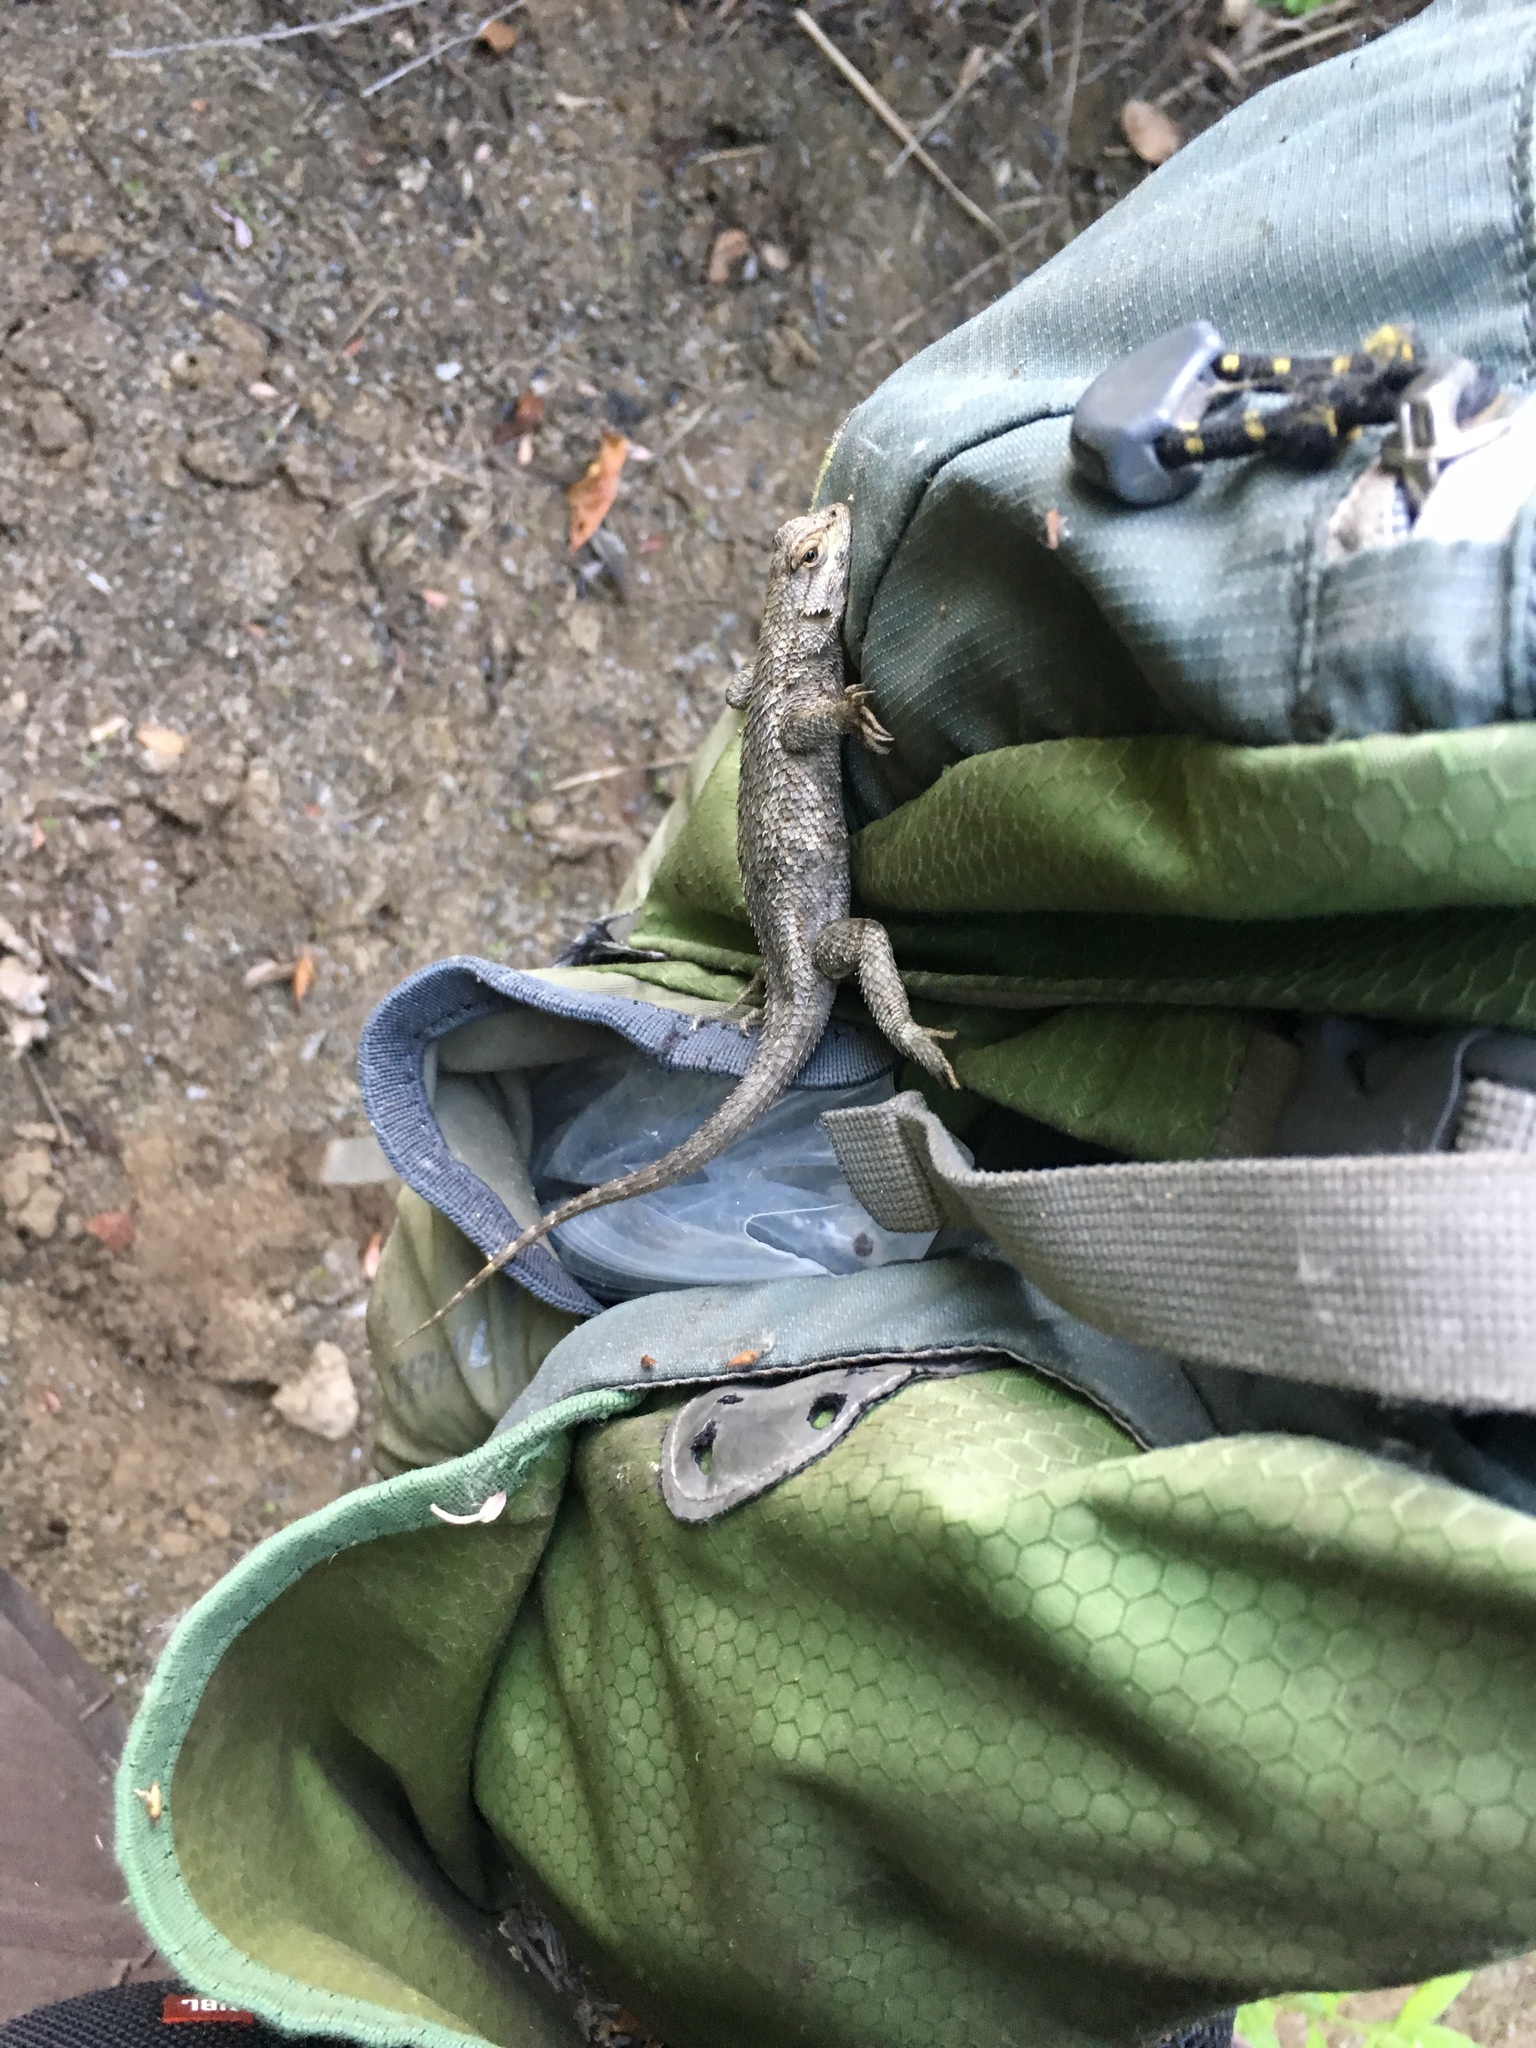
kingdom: Animalia
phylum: Chordata
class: Squamata
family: Phrynosomatidae
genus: Sceloporus
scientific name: Sceloporus occidentalis
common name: Western fence lizard
